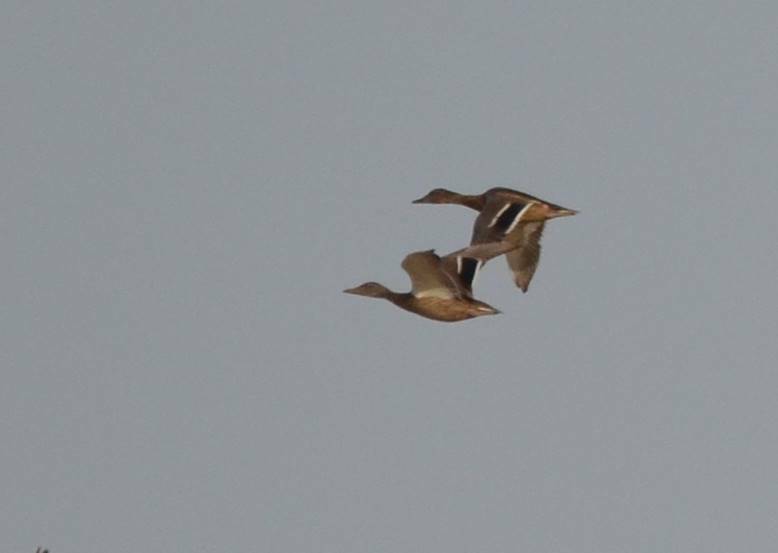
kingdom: Animalia
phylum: Chordata
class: Aves
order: Anseriformes
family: Anatidae
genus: Anas
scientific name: Anas platyrhynchos
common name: Mallard
